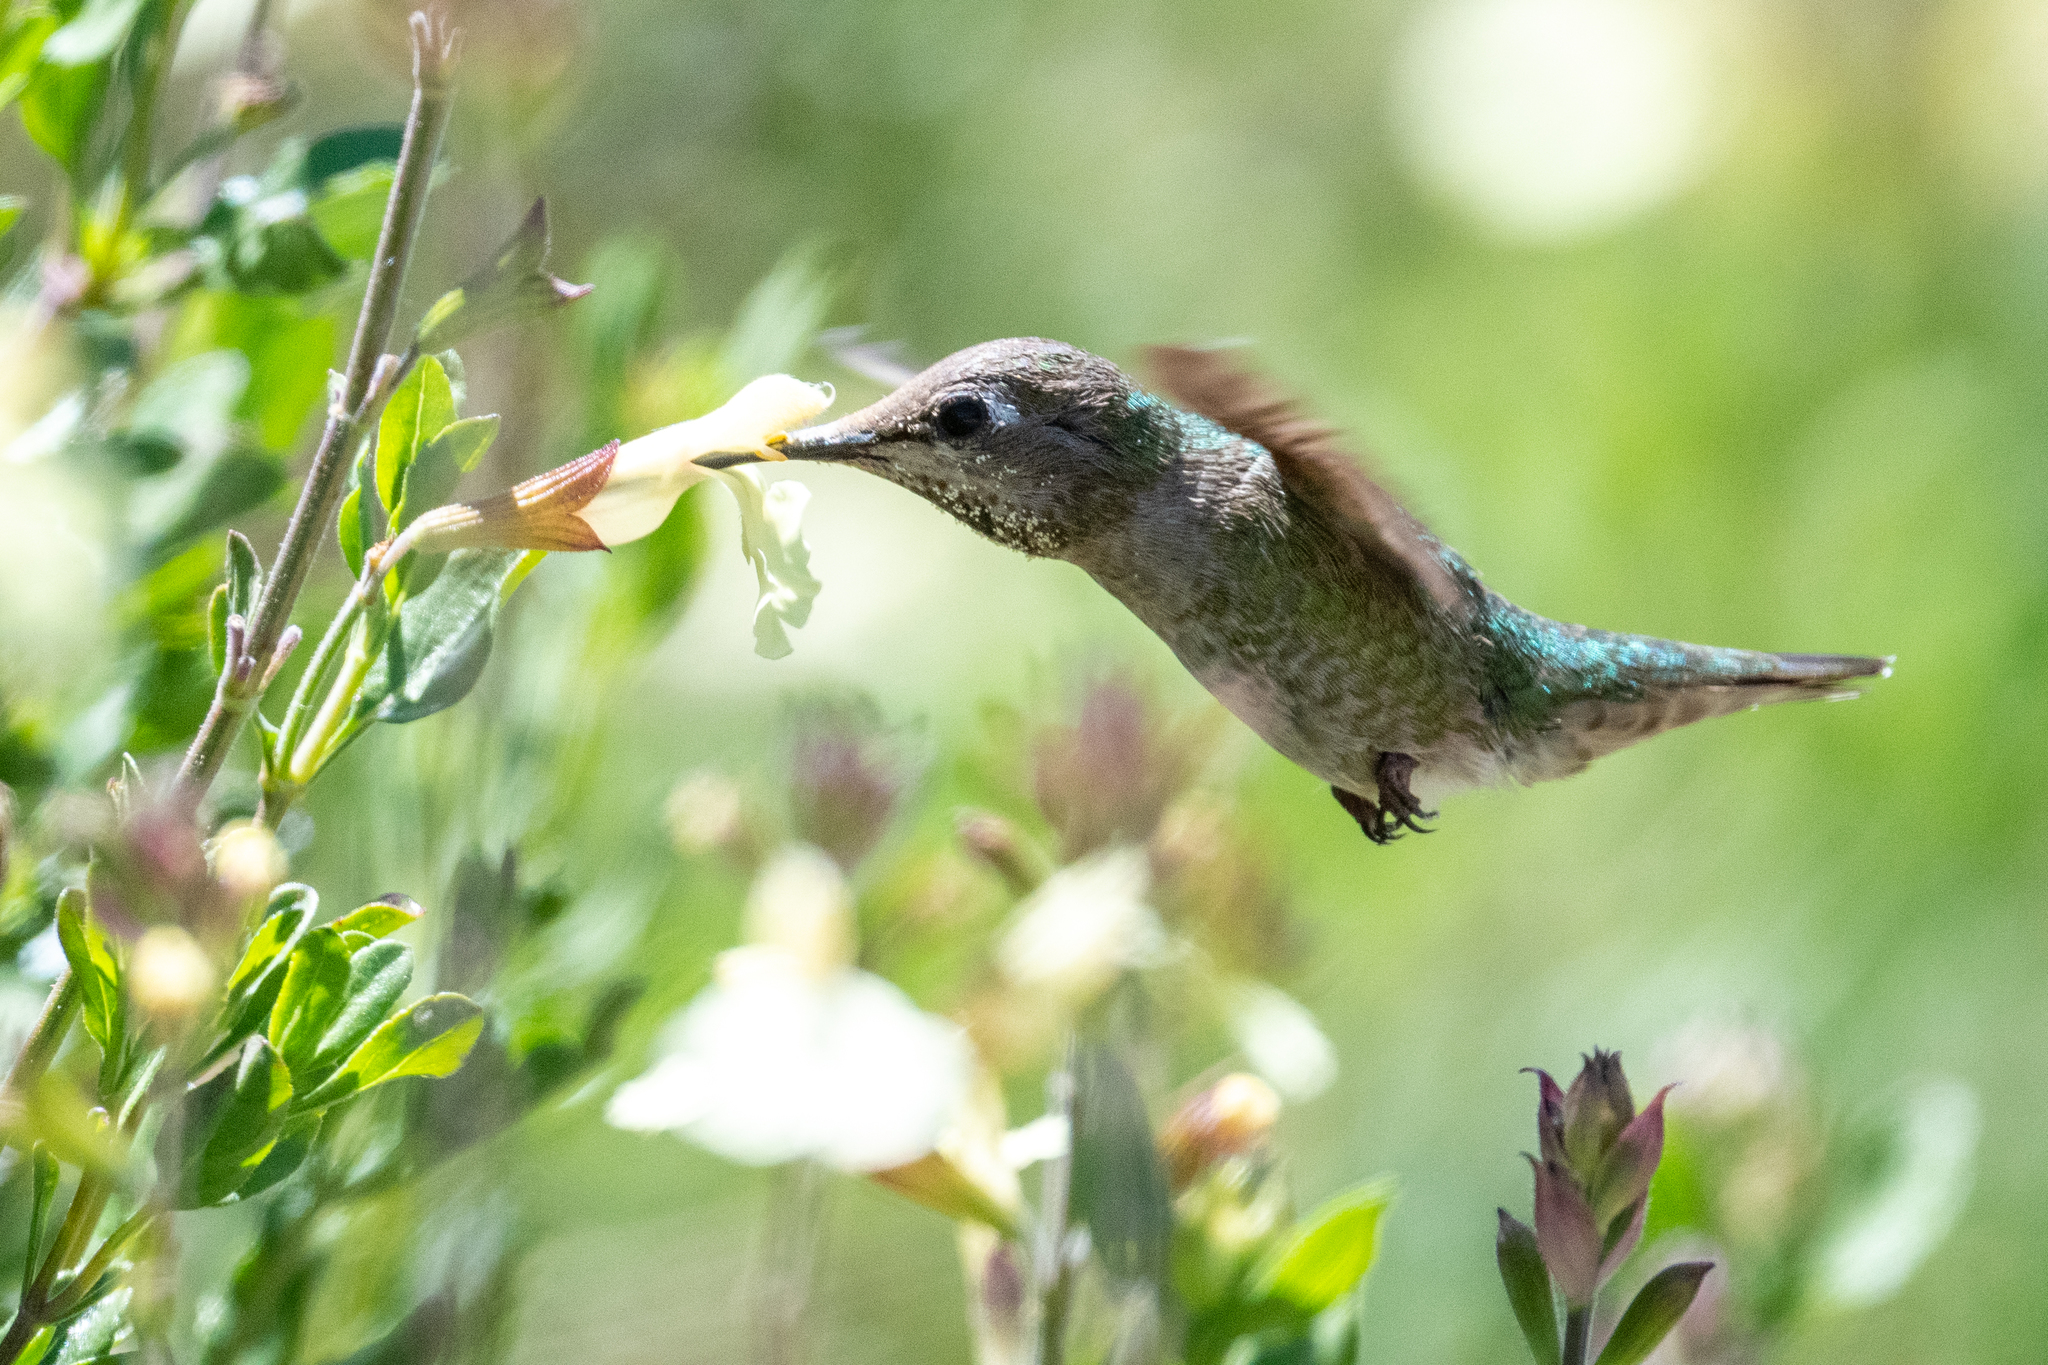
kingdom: Animalia
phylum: Chordata
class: Aves
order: Apodiformes
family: Trochilidae
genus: Calypte
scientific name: Calypte anna
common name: Anna's hummingbird
